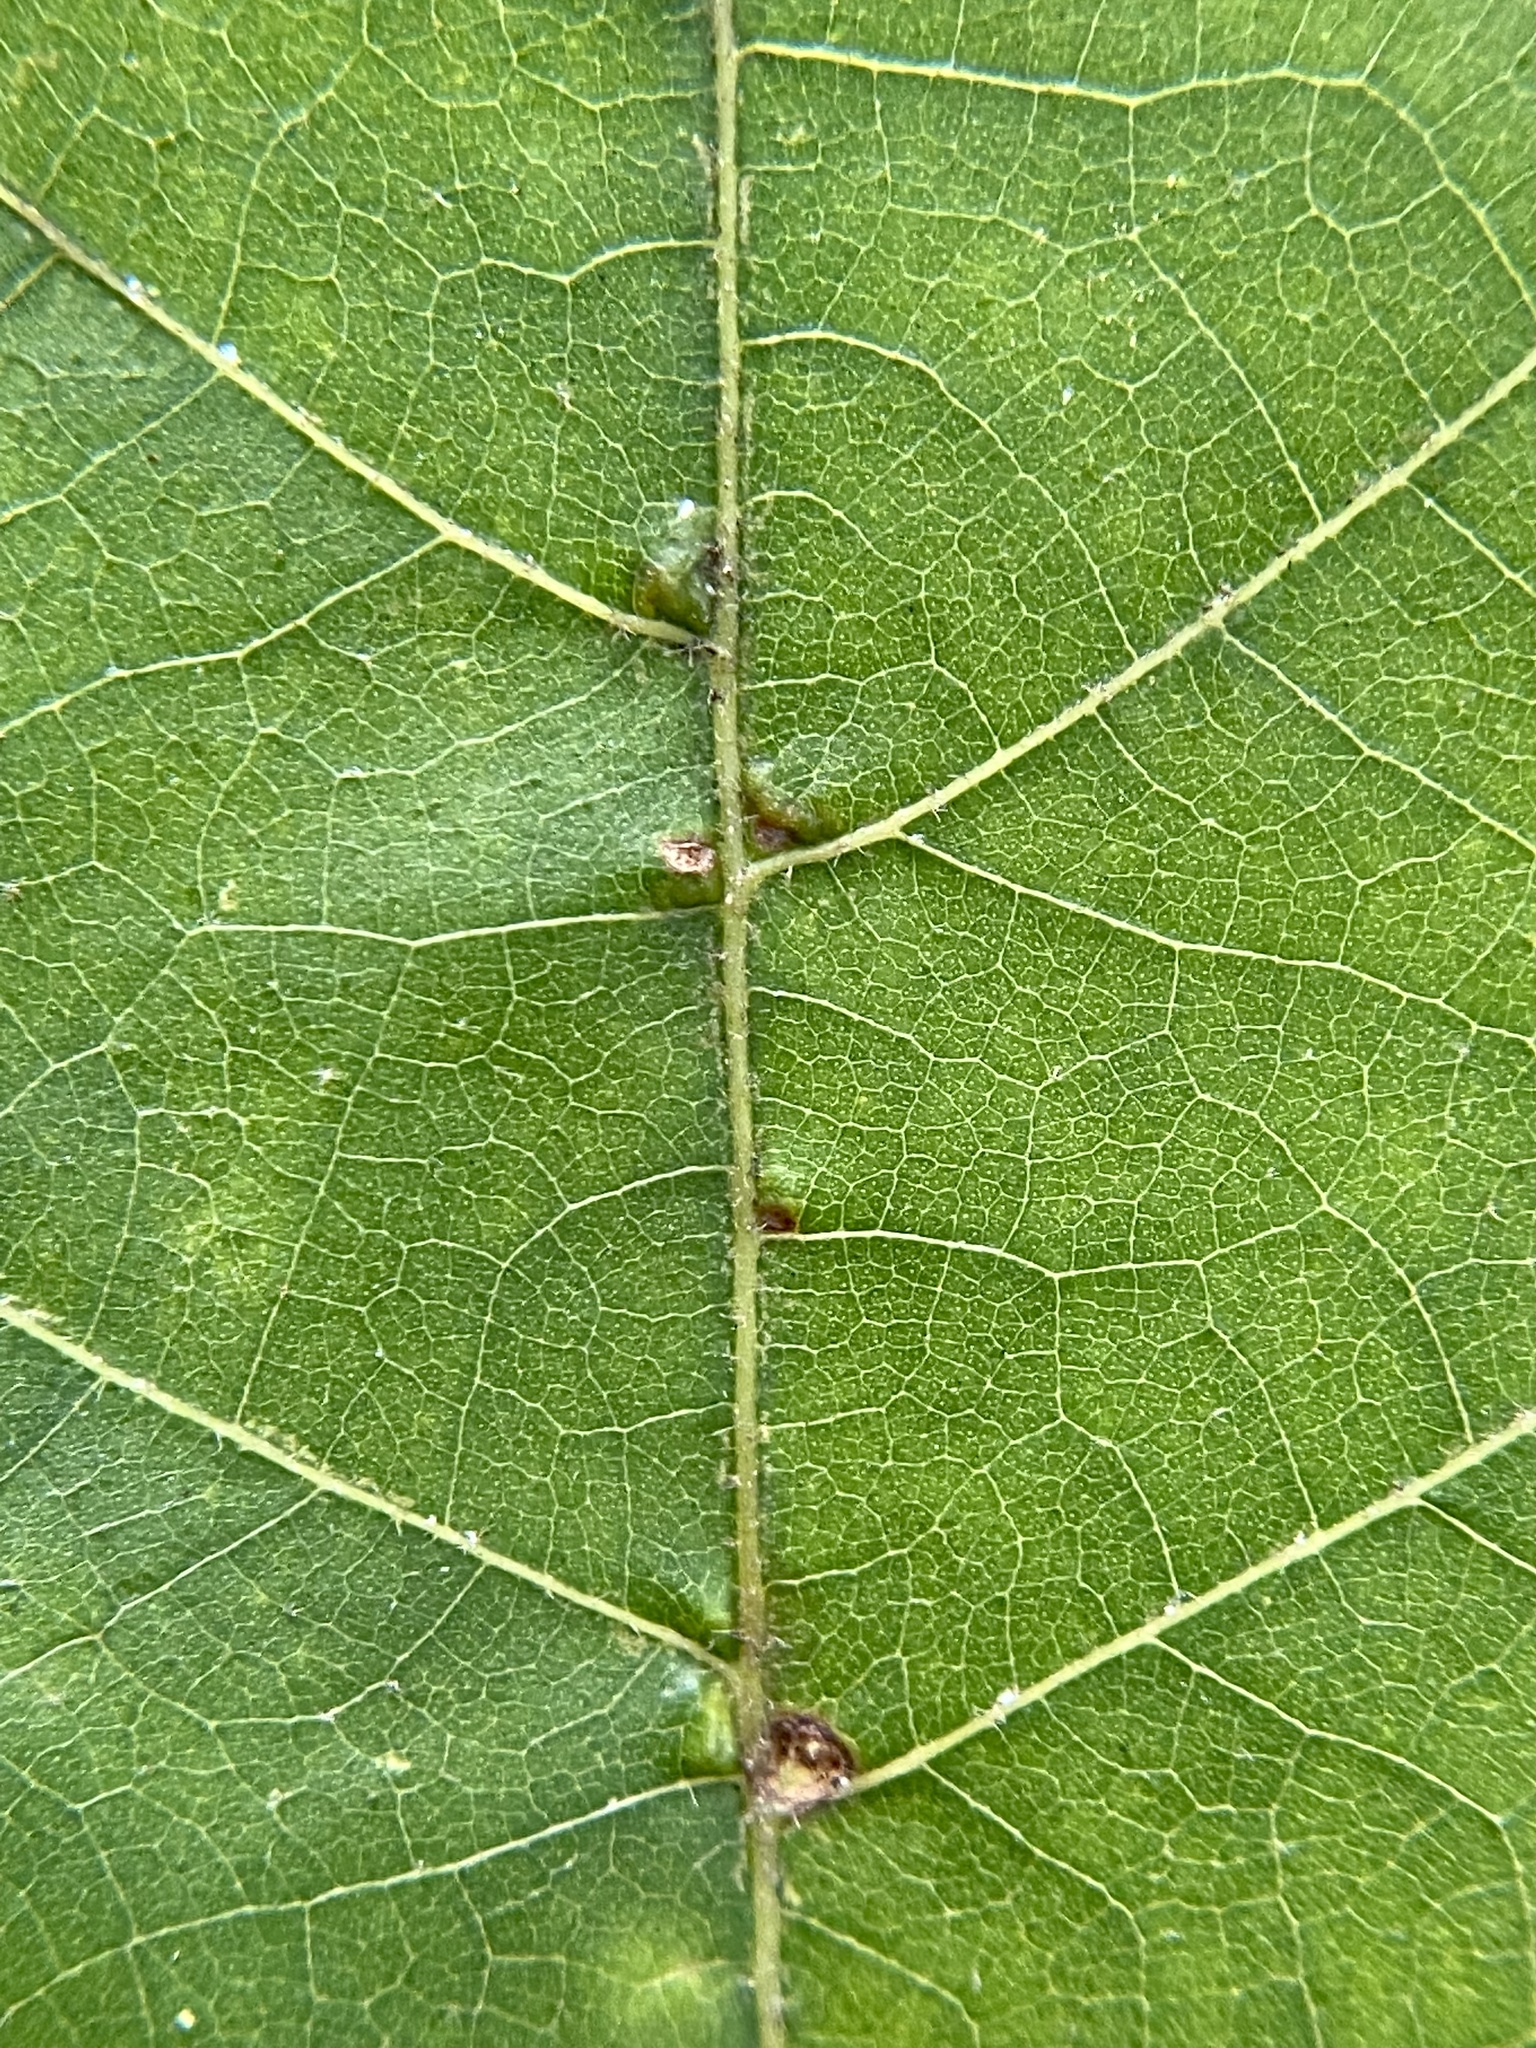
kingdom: Animalia
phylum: Arthropoda
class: Arachnida
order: Trombidiformes
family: Eriophyidae
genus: Aceria
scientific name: Aceria
